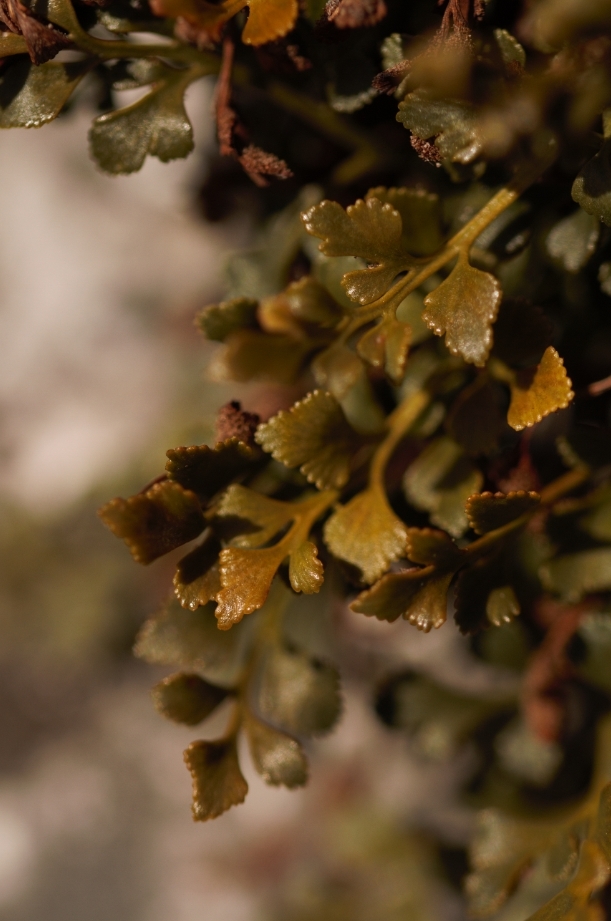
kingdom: Plantae
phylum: Tracheophyta
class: Polypodiopsida
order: Polypodiales
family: Aspleniaceae
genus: Asplenium
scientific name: Asplenium ruta-muraria
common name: Wall-rue
